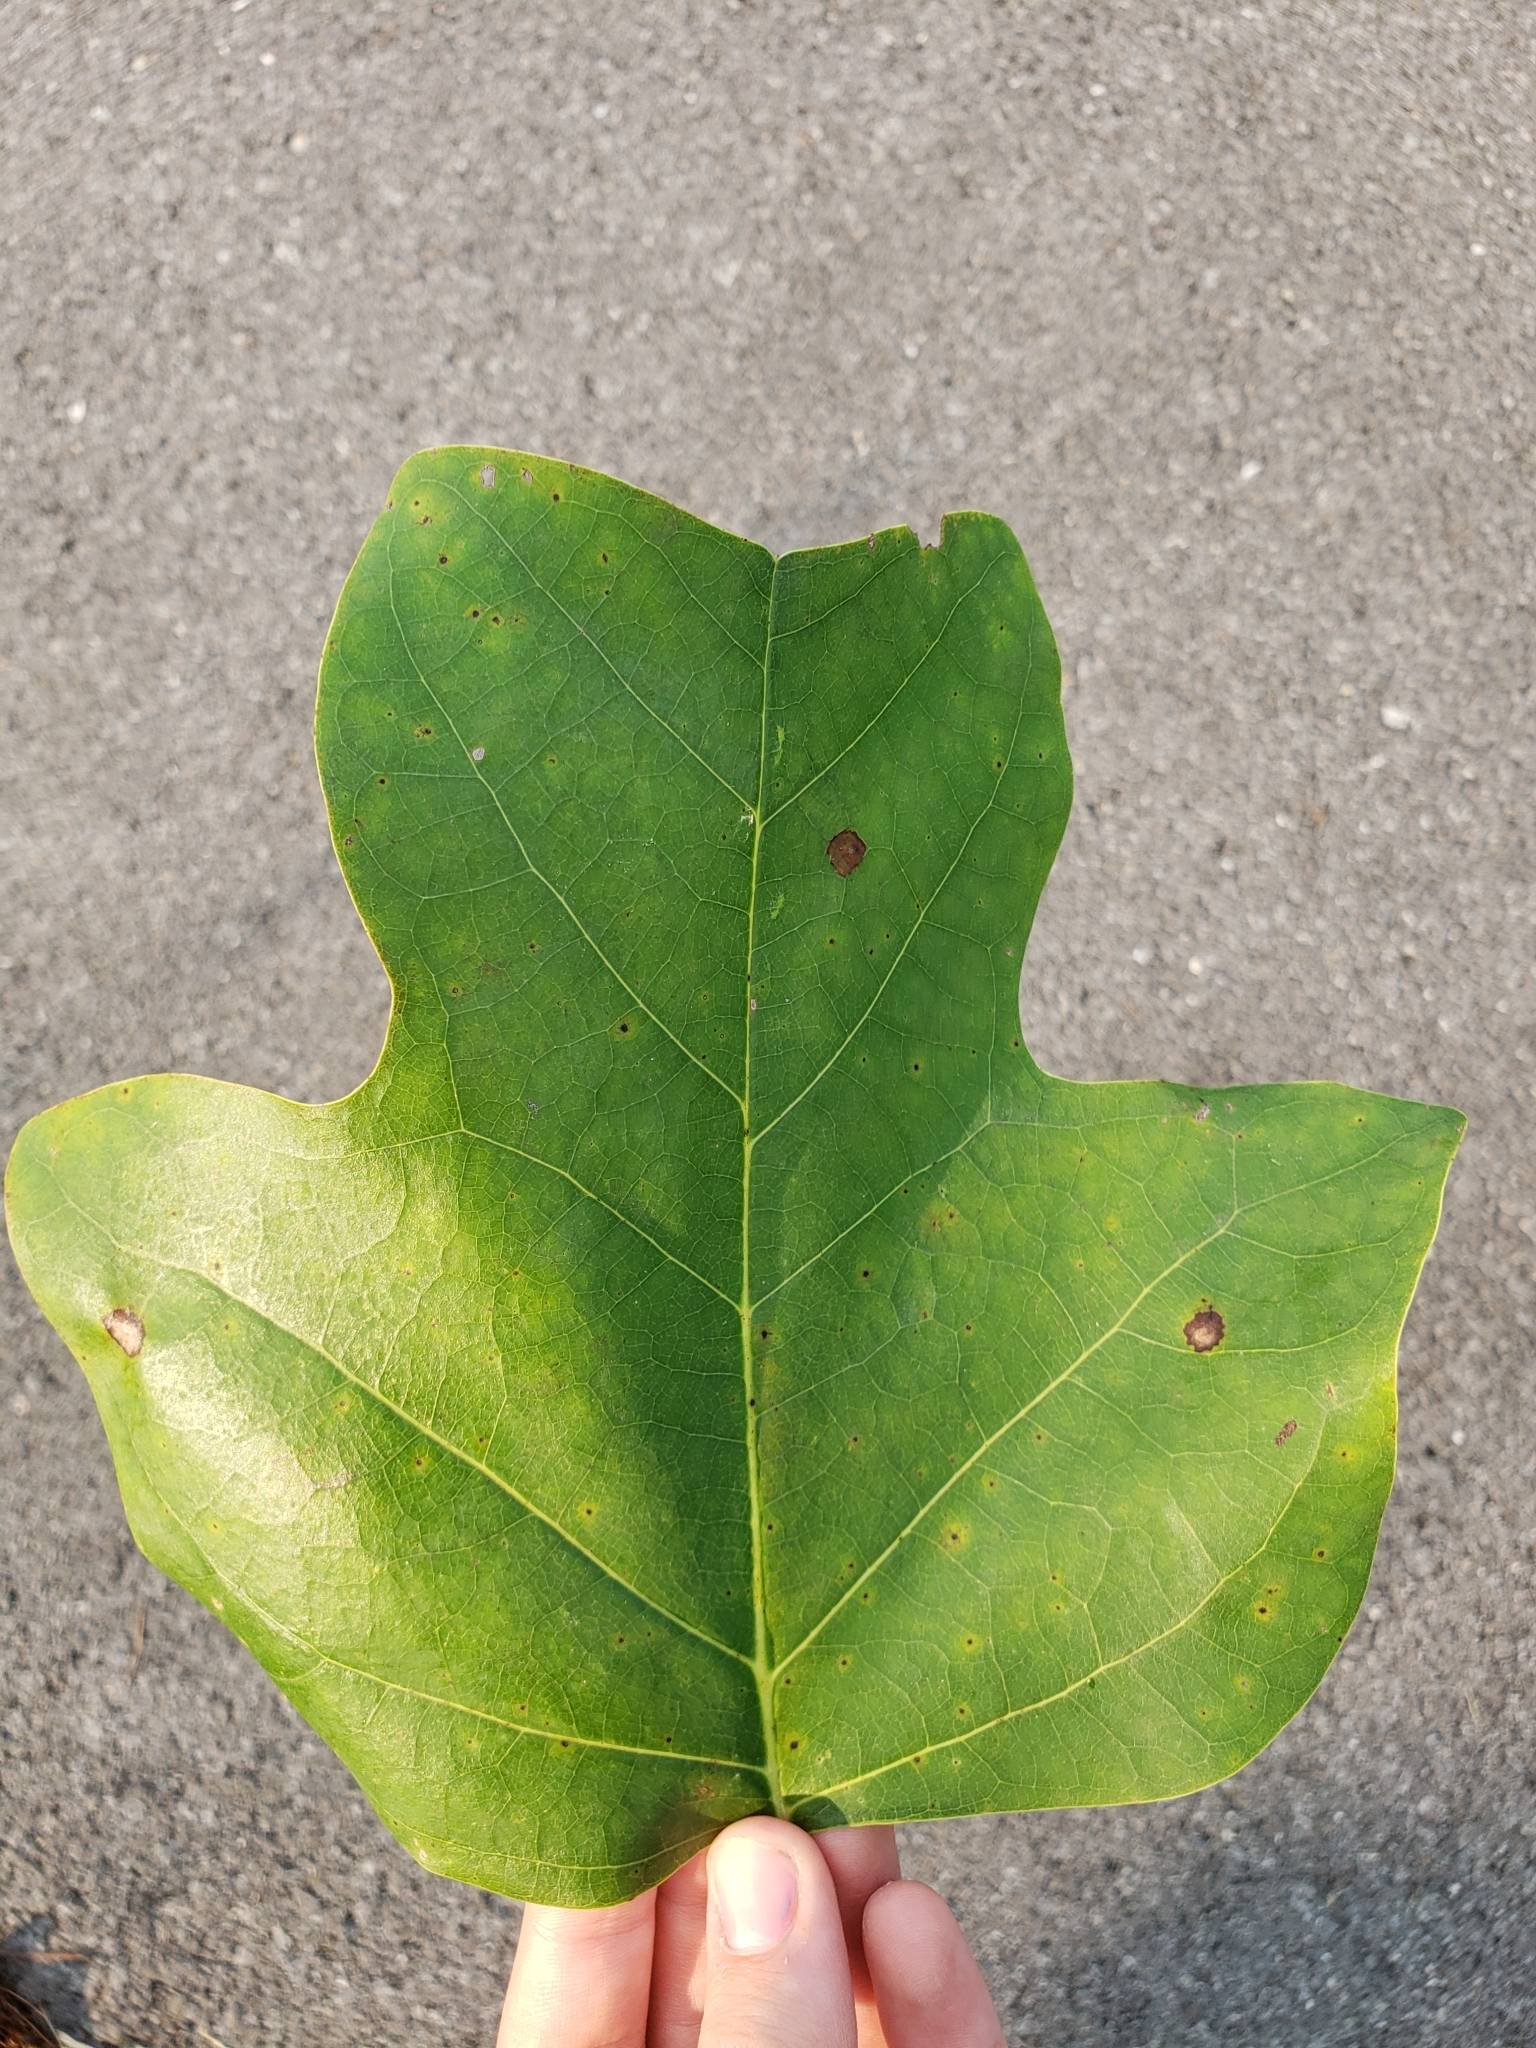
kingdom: Plantae
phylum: Tracheophyta
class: Magnoliopsida
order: Magnoliales
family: Magnoliaceae
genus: Liriodendron
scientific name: Liriodendron tulipifera
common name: Tulip tree
